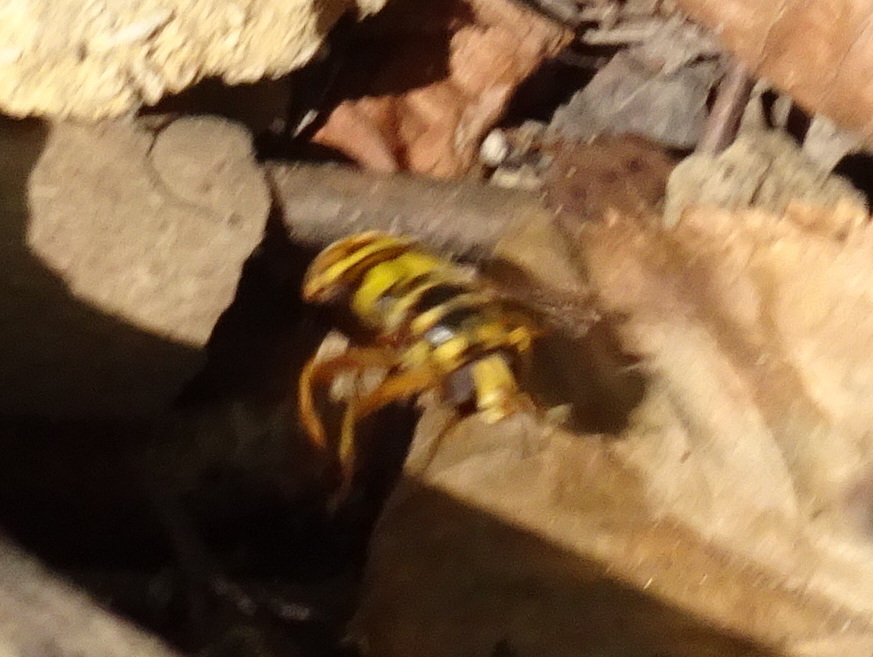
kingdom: Animalia
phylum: Arthropoda
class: Insecta
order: Diptera
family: Syrphidae
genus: Milesia
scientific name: Milesia virginiensis
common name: Virginia giant
